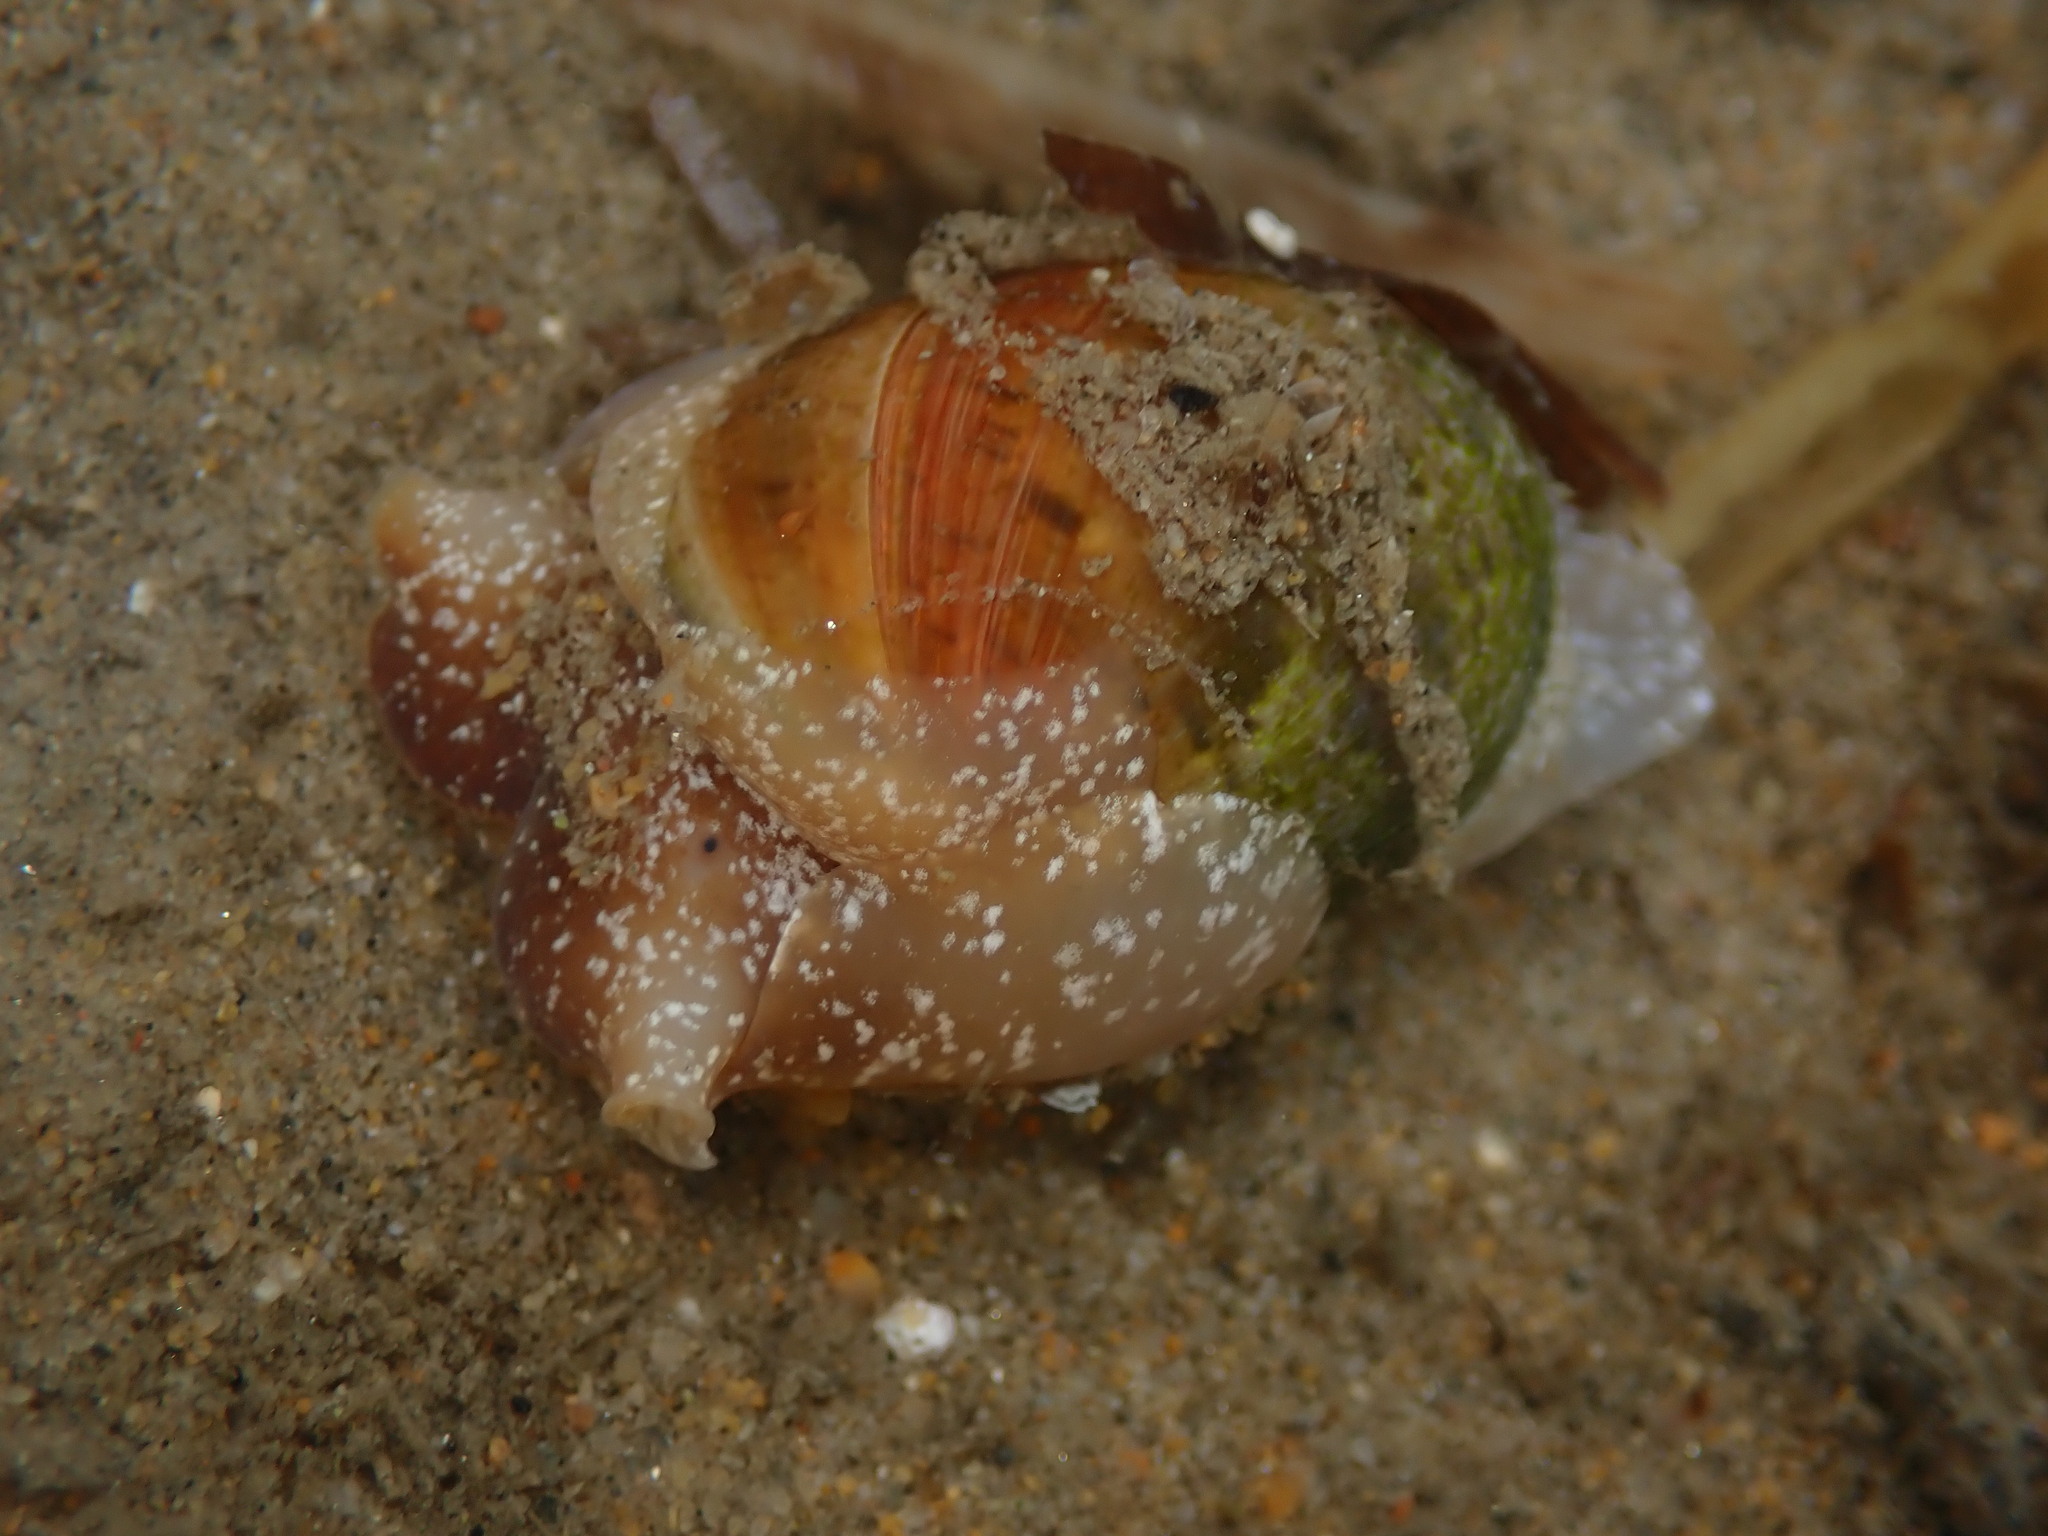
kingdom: Animalia
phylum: Mollusca
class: Gastropoda
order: Cephalaspidea
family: Bullidae
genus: Bulla
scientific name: Bulla gouldiana
